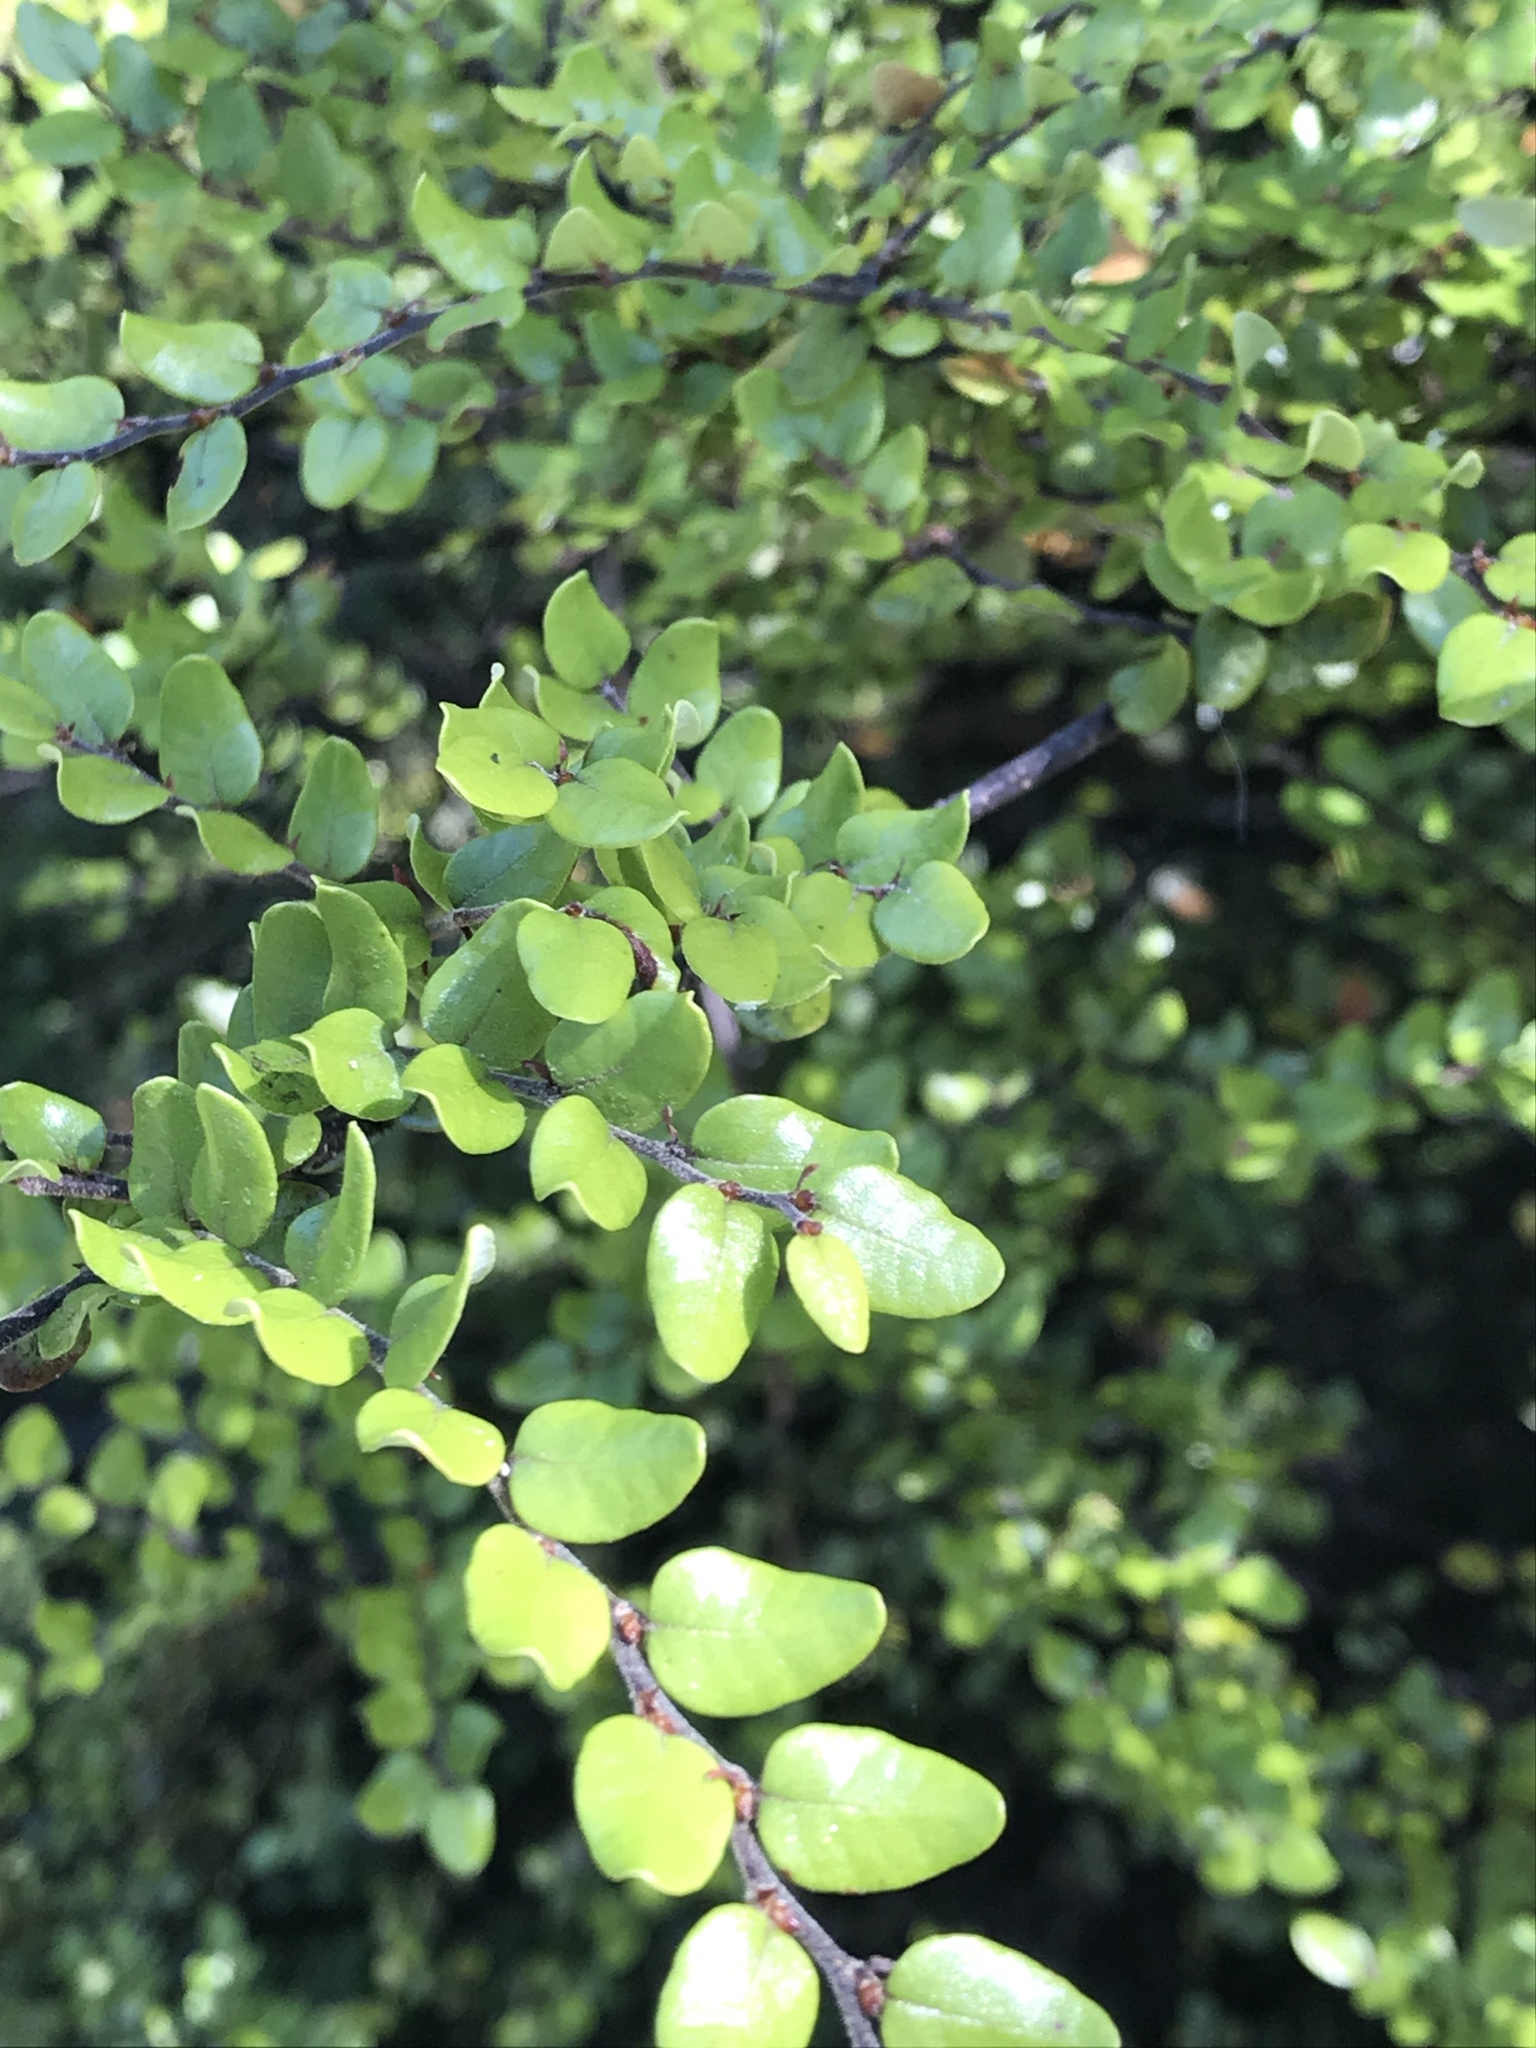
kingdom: Plantae
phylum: Tracheophyta
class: Magnoliopsida
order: Fagales
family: Nothofagaceae
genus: Nothofagus
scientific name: Nothofagus cliffortioides
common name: Mountain beech
